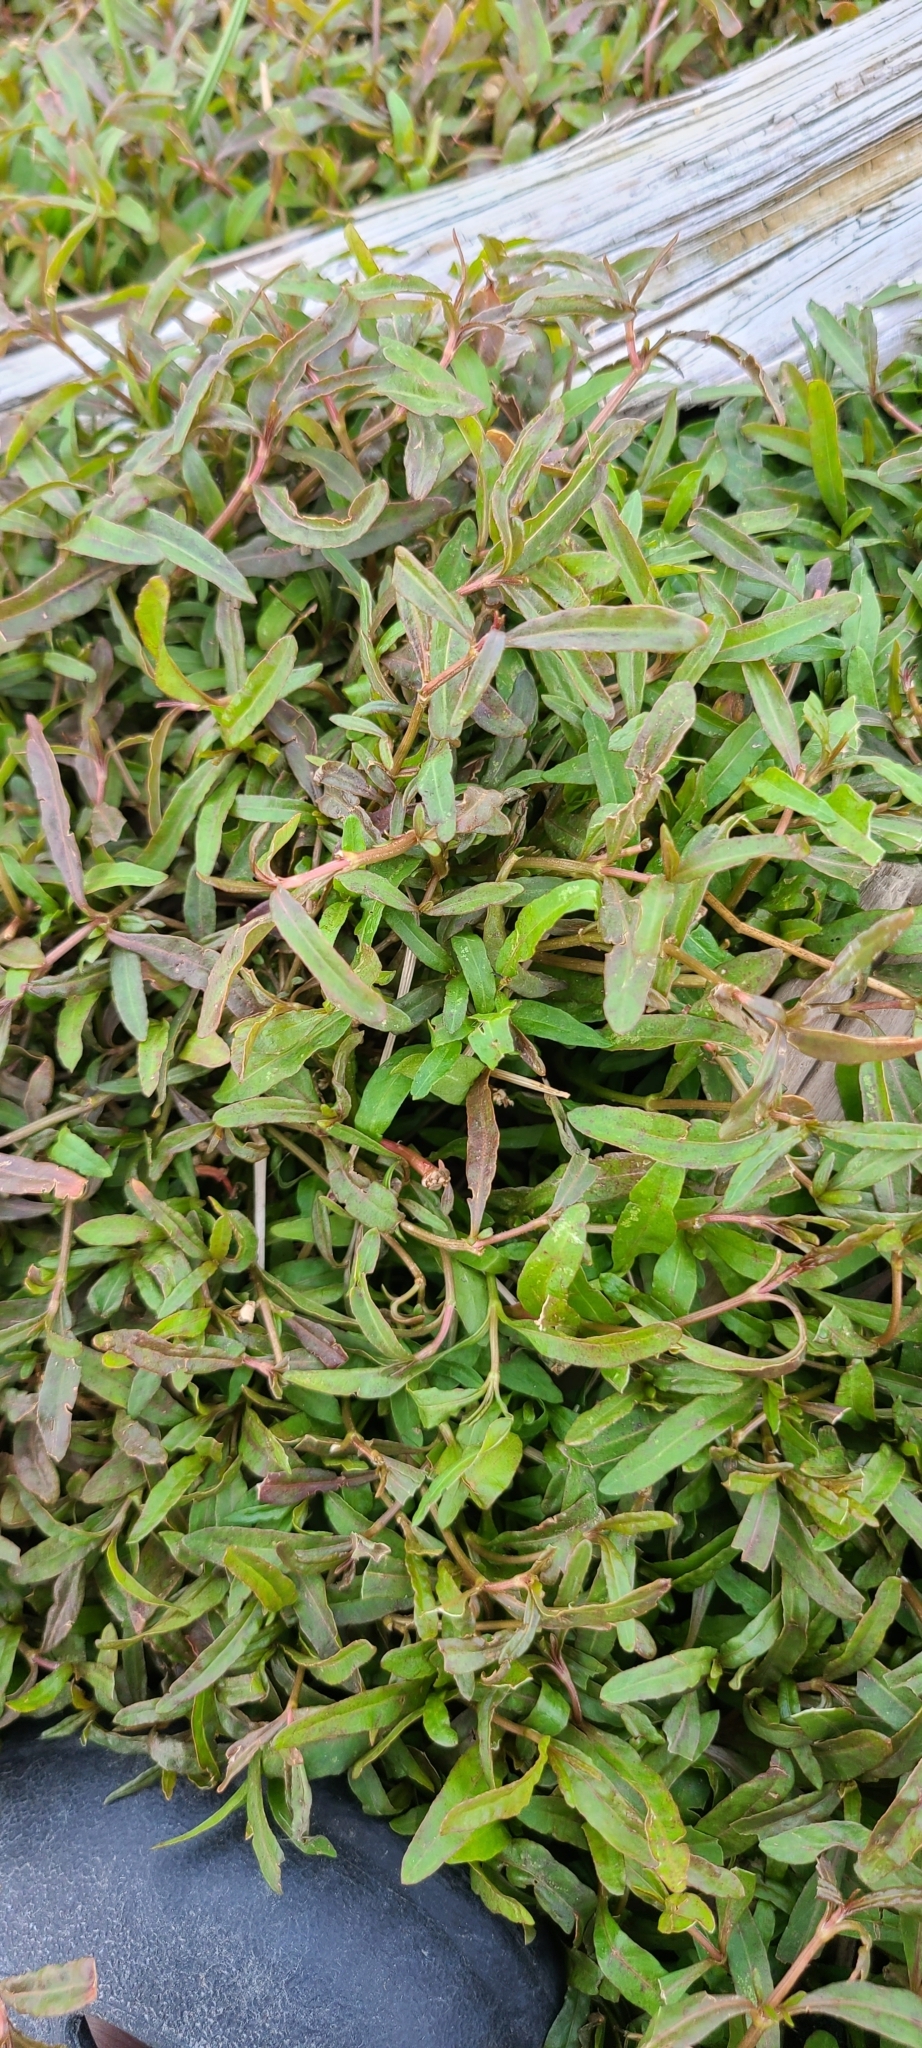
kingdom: Plantae
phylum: Tracheophyta
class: Magnoliopsida
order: Caryophyllales
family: Amaranthaceae
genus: Alternanthera
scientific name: Alternanthera nahui
